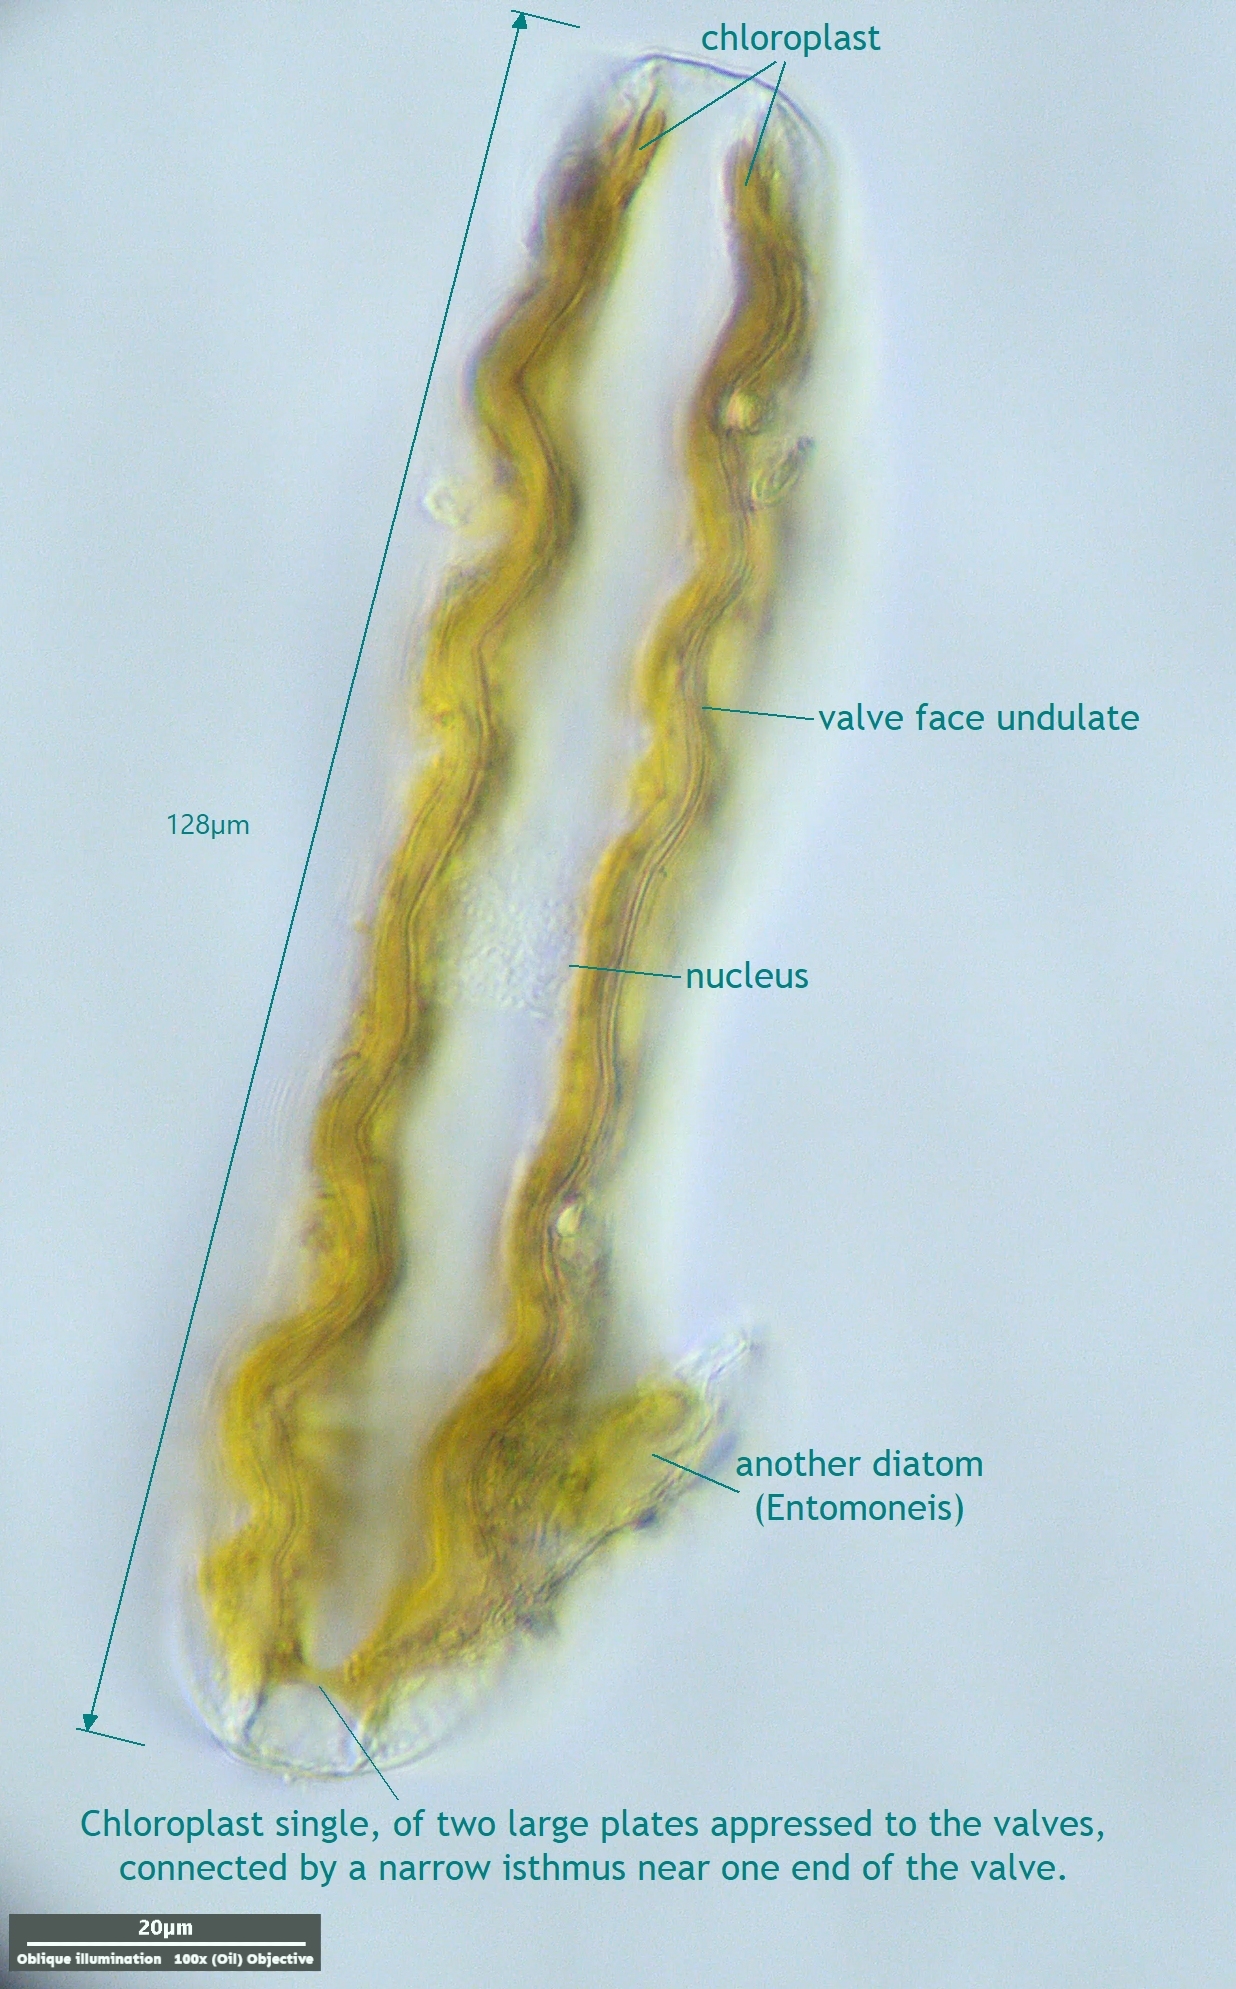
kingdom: Chromista
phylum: Ochrophyta
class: Bacillariophyceae
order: Surirellales
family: Surirellaceae
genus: Surirella
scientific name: Surirella librile
